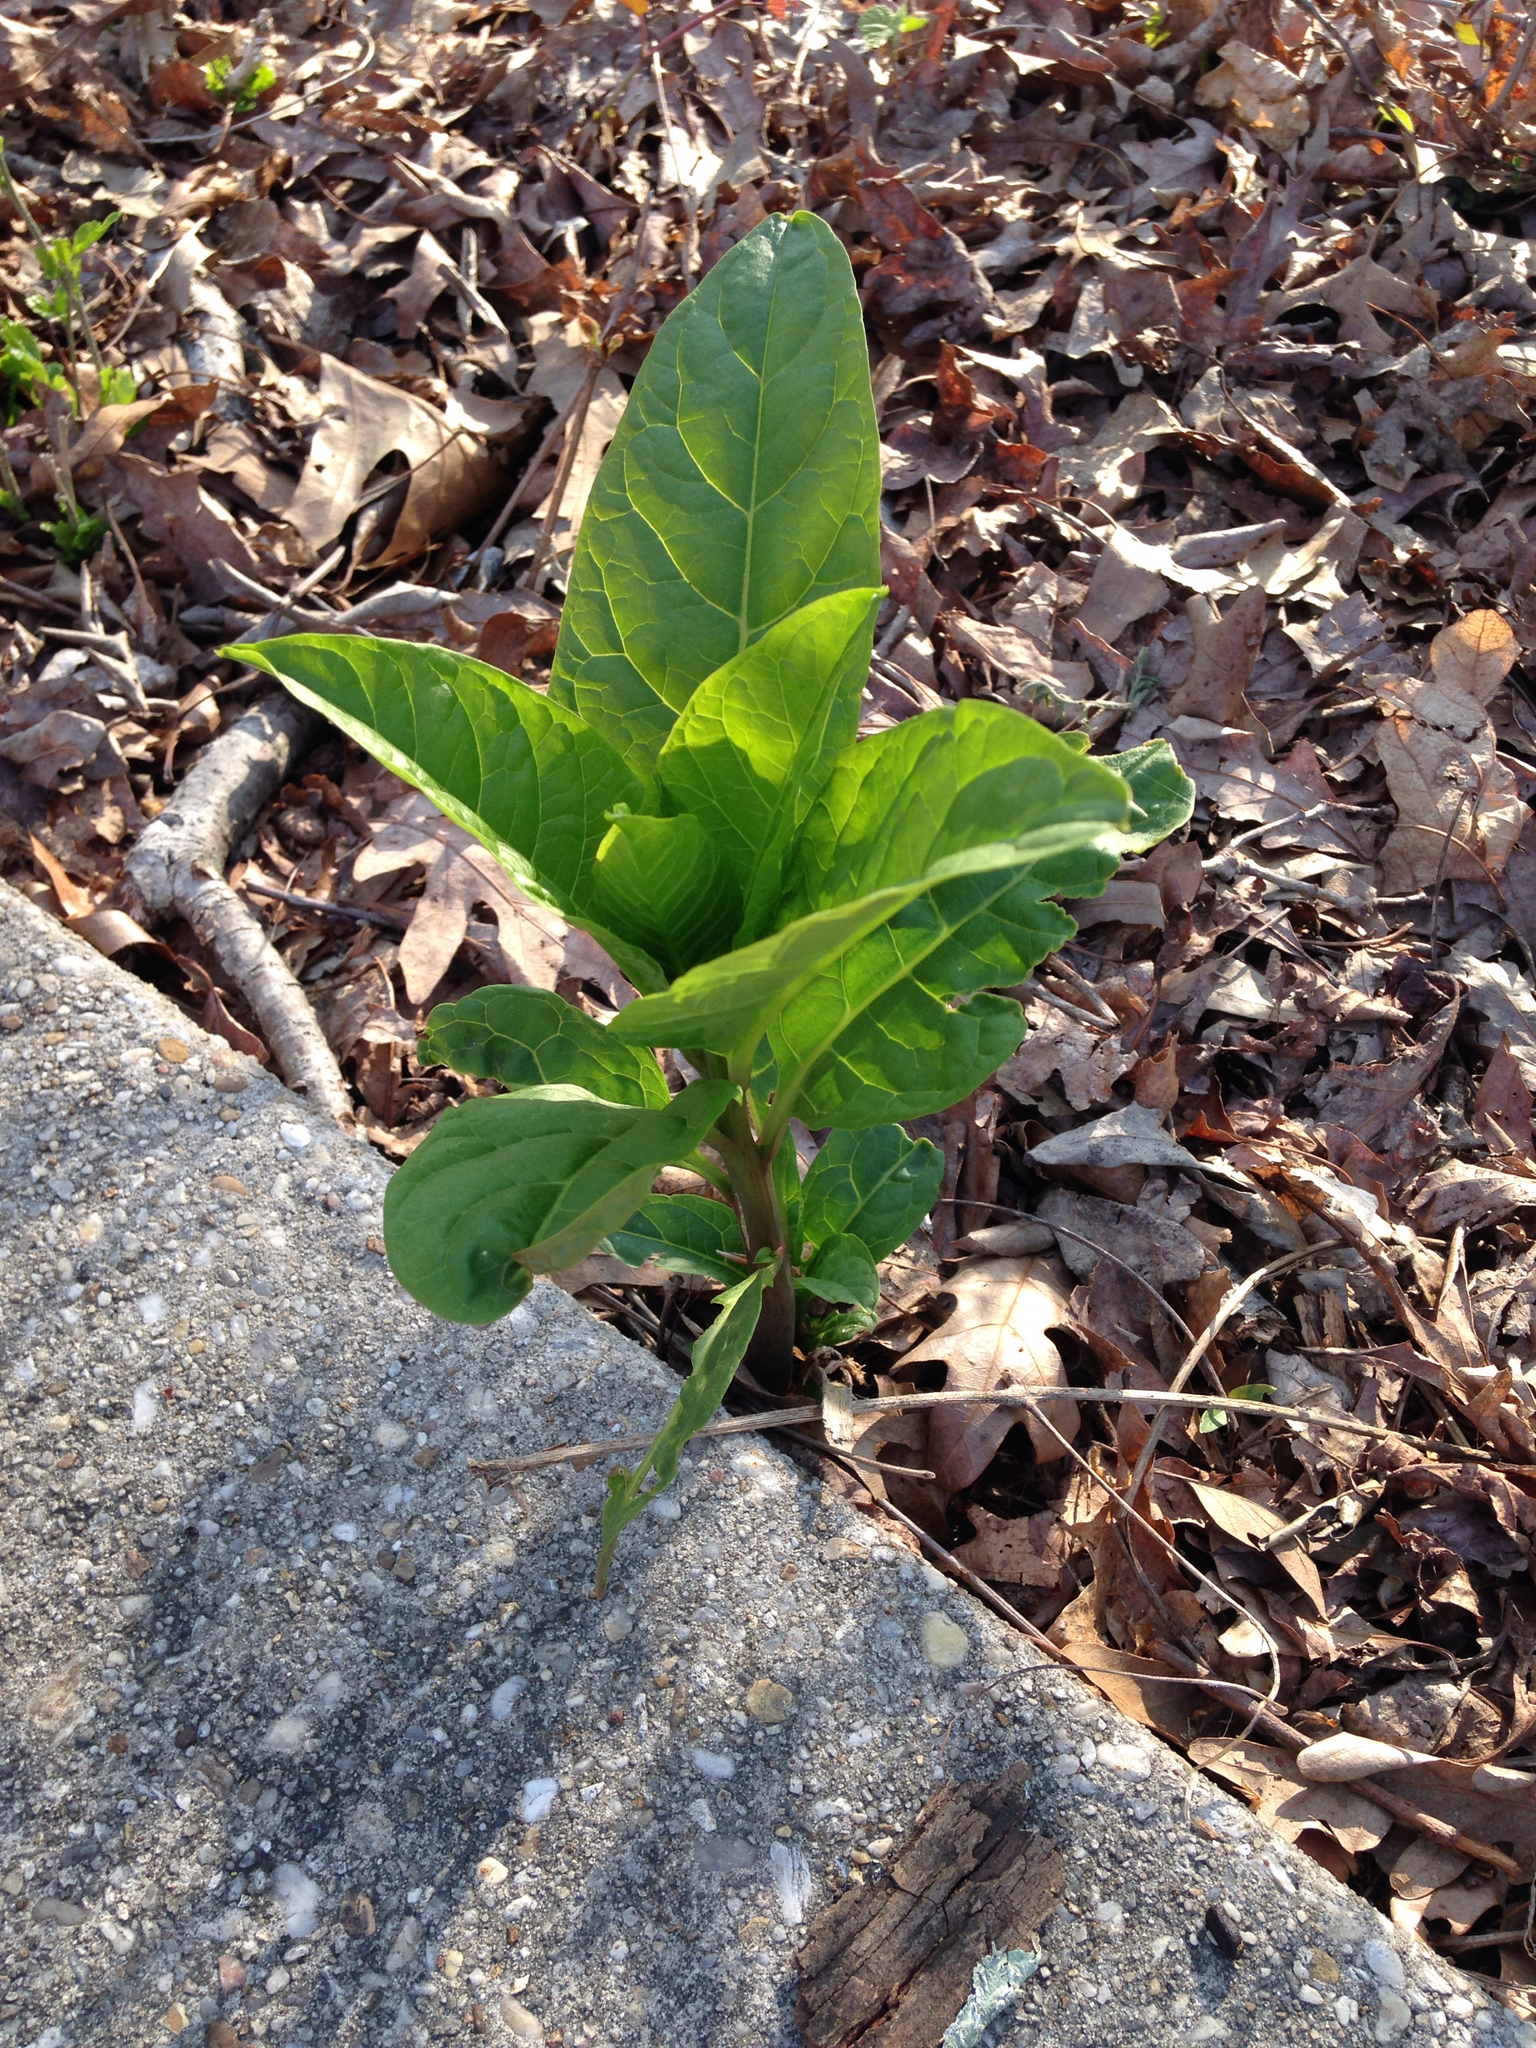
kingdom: Plantae
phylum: Tracheophyta
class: Magnoliopsida
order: Caryophyllales
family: Phytolaccaceae
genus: Phytolacca
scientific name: Phytolacca americana
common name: American pokeweed
